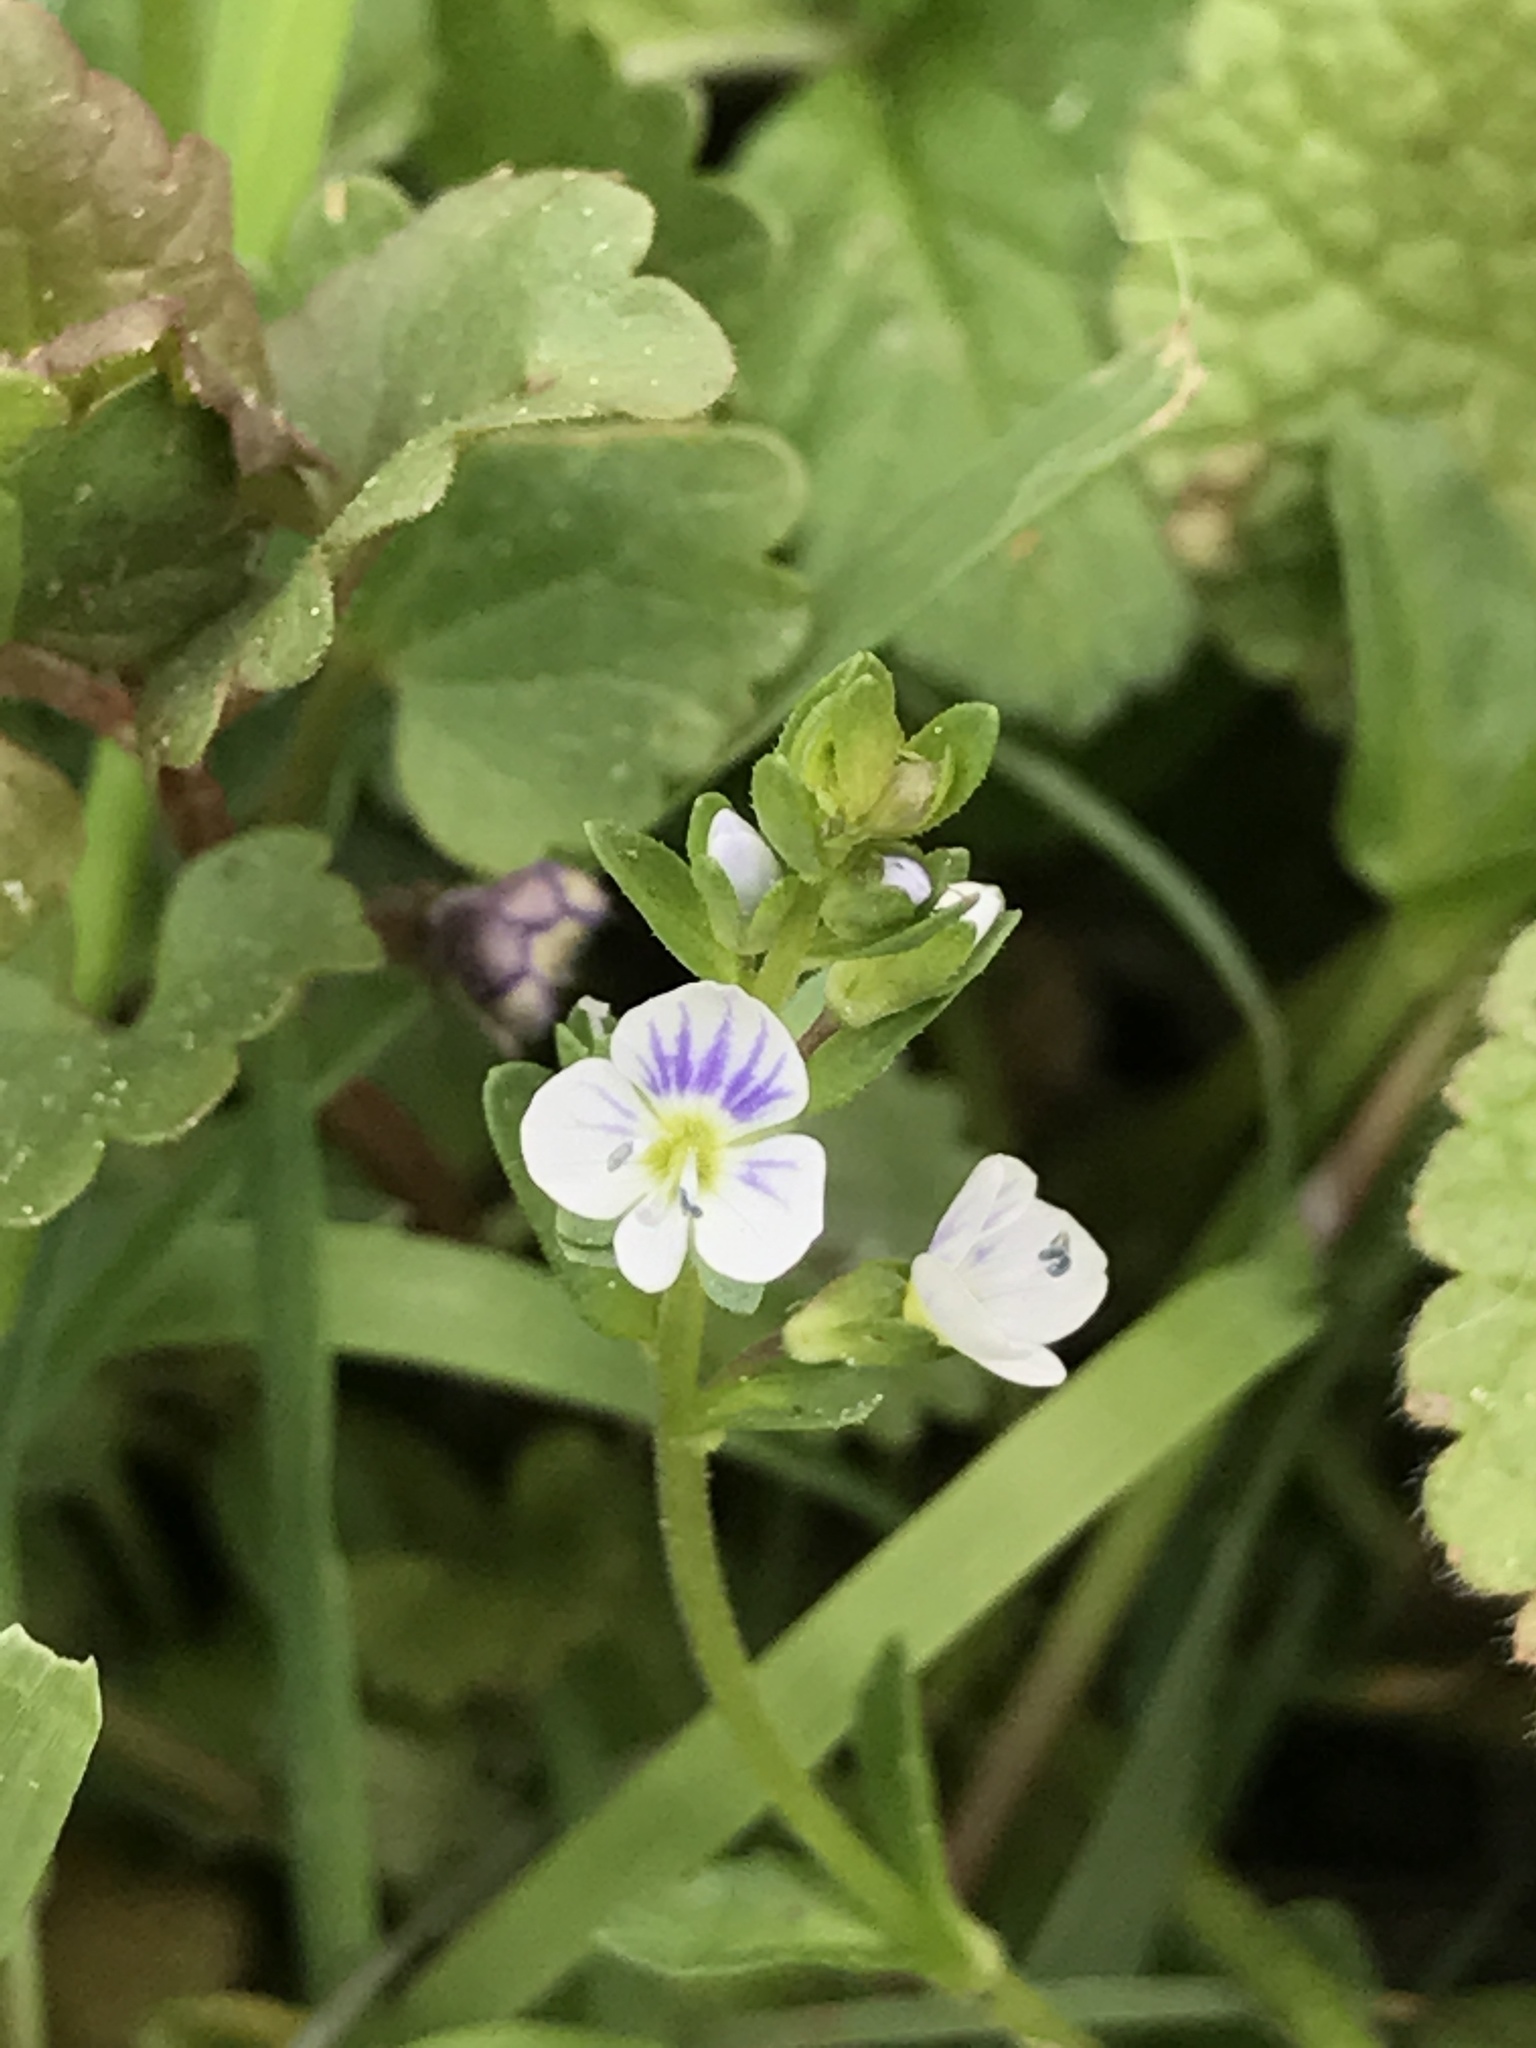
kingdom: Plantae
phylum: Tracheophyta
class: Magnoliopsida
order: Lamiales
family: Plantaginaceae
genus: Veronica
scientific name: Veronica serpyllifolia
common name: Thyme-leaved speedwell
